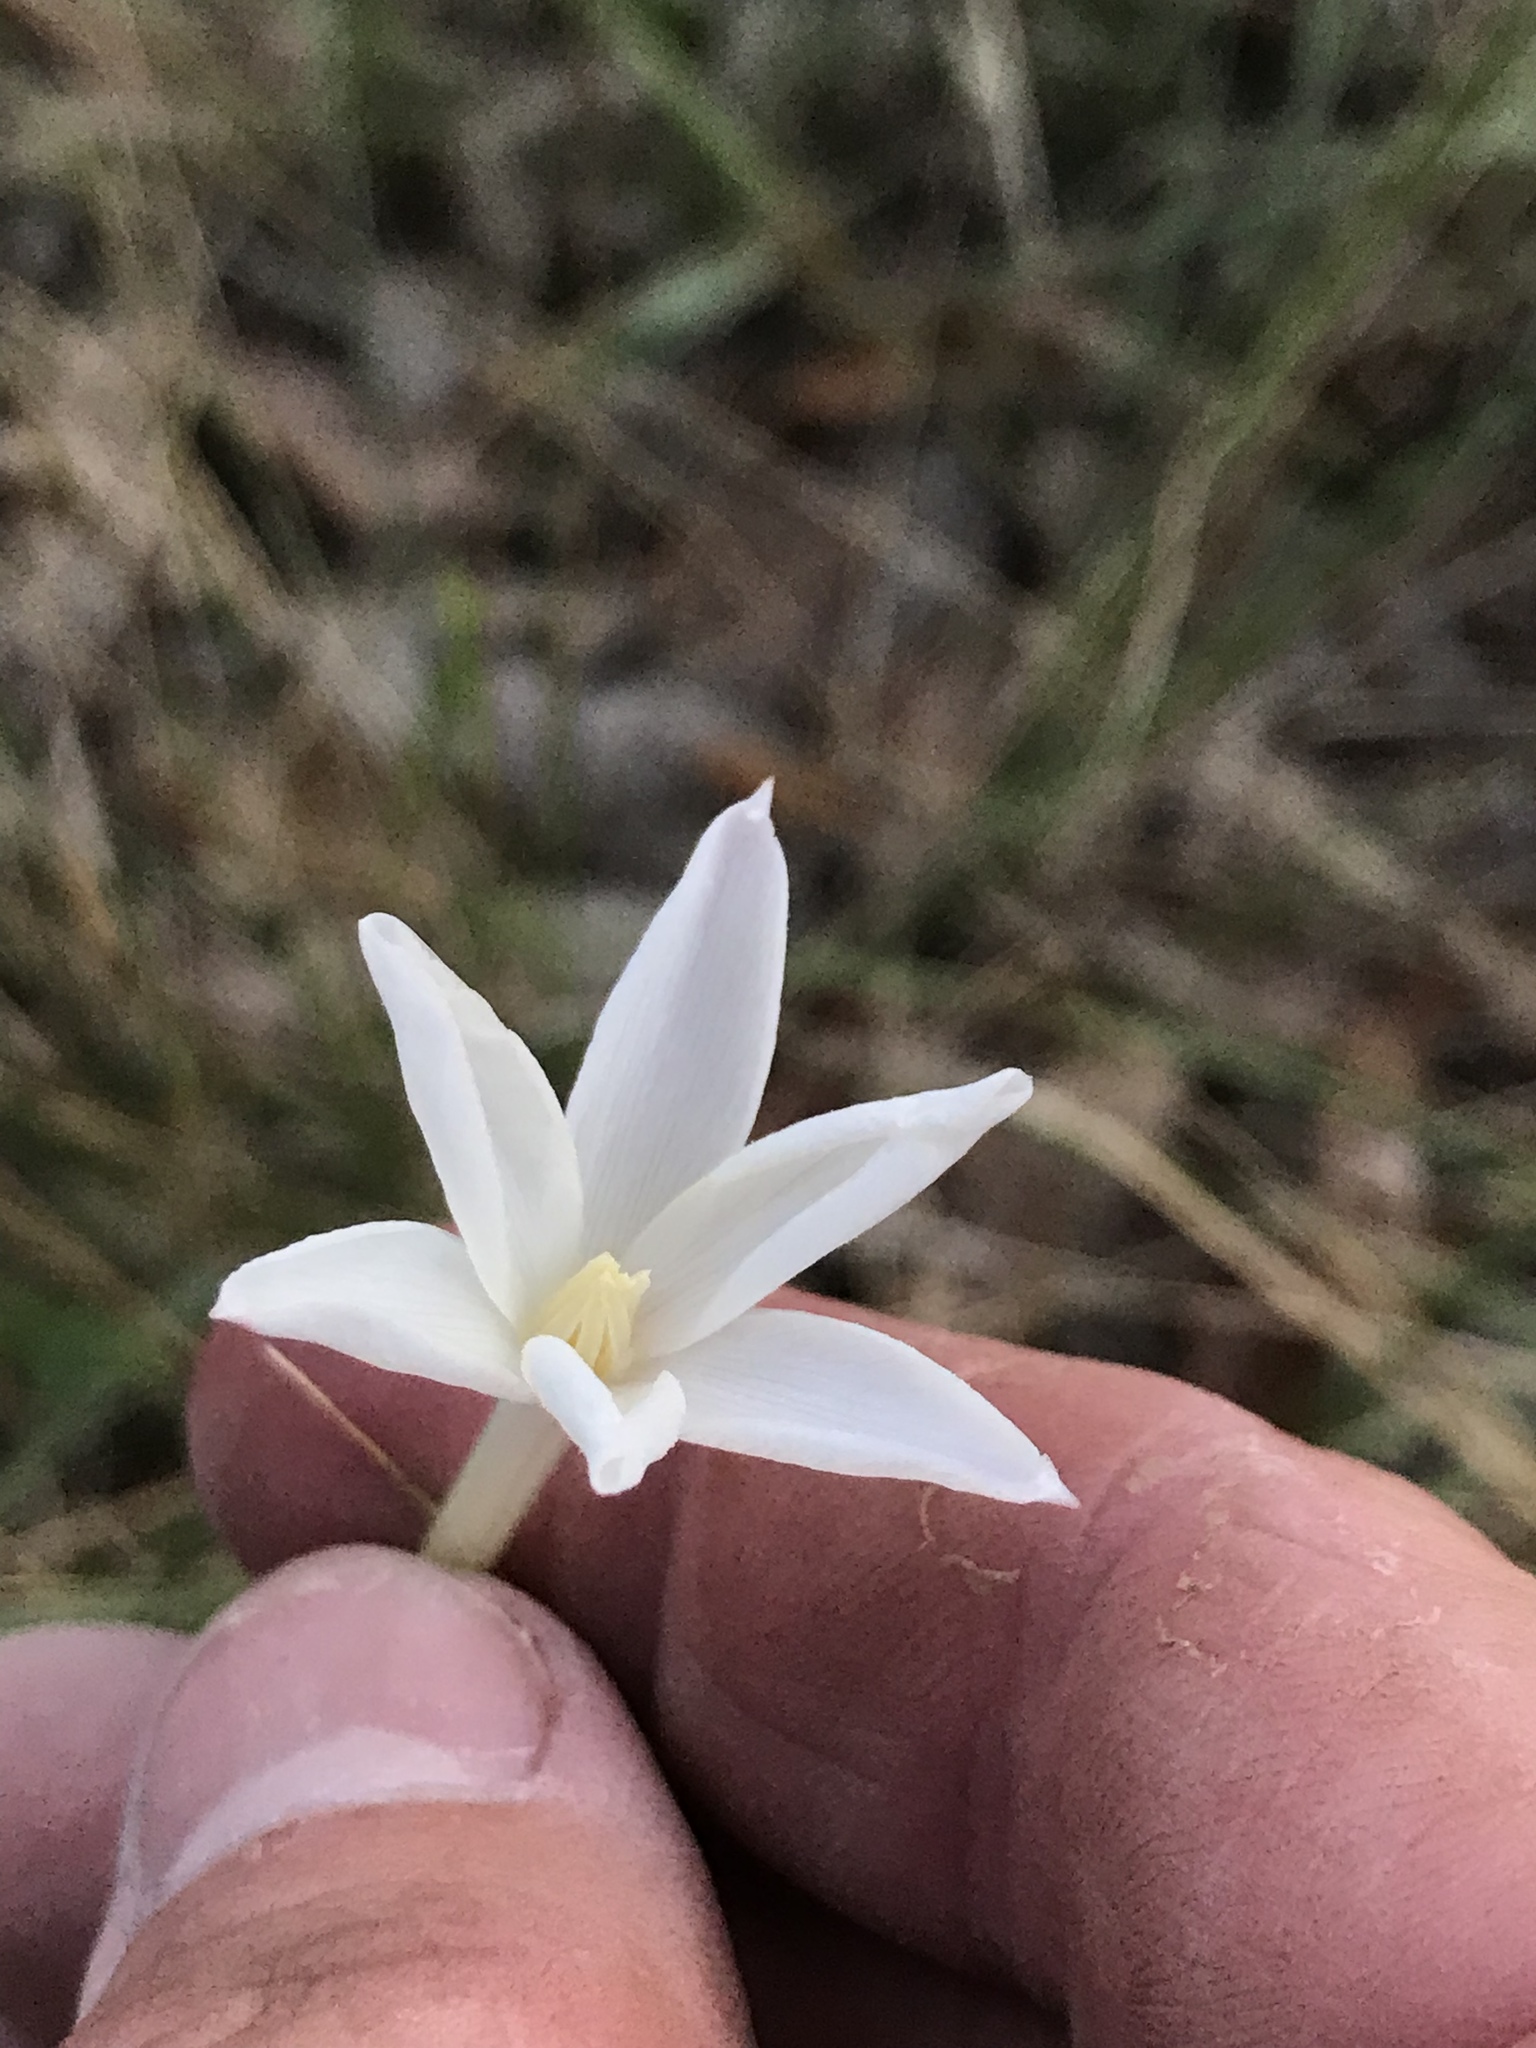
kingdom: Plantae
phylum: Tracheophyta
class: Liliopsida
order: Asparagales
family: Amaryllidaceae
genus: Zephyranthes
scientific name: Zephyranthes chlorosolen
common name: Evening rain-lily
